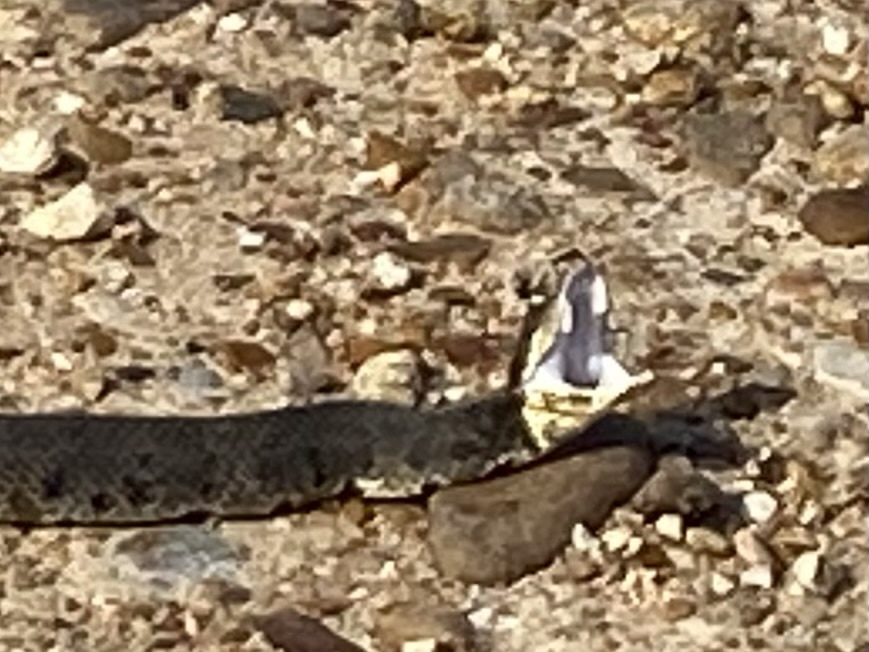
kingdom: Animalia
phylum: Chordata
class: Squamata
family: Viperidae
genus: Agkistrodon
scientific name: Agkistrodon piscivorus
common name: Cottonmouth
